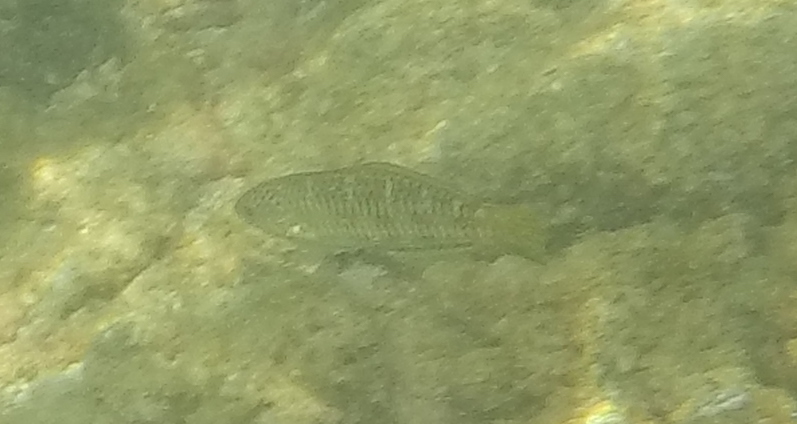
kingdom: Animalia
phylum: Chordata
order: Perciformes
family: Labridae
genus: Thalassoma
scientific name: Thalassoma
